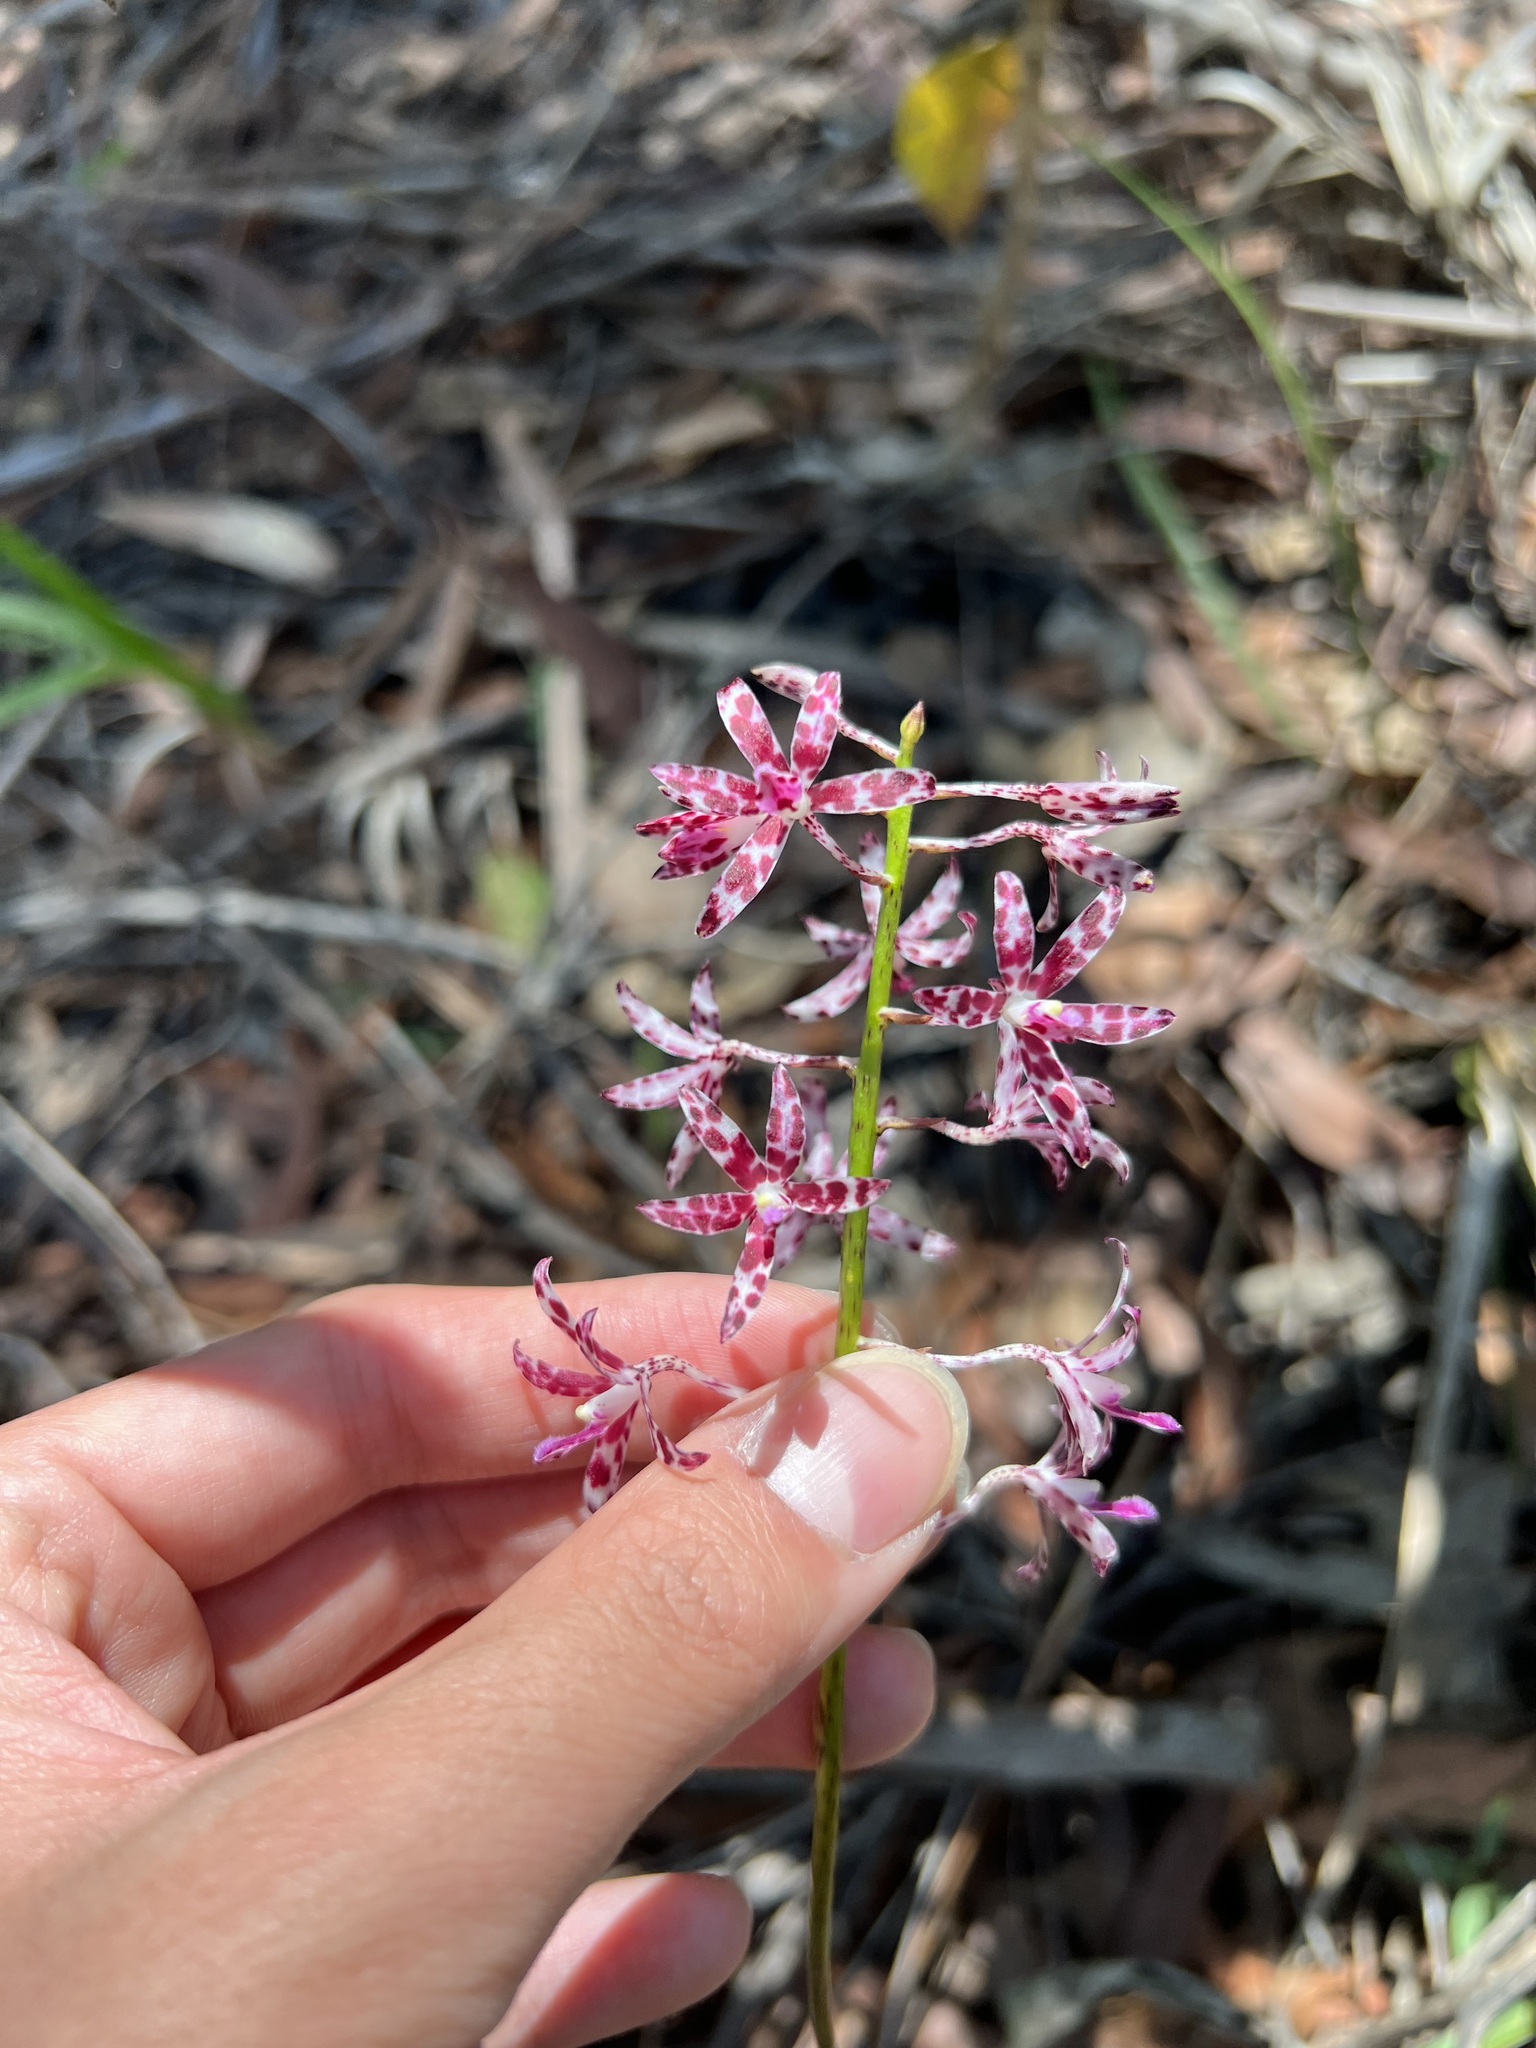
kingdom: Plantae
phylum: Tracheophyta
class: Liliopsida
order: Asparagales
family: Orchidaceae
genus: Dipodium
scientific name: Dipodium variegatum
